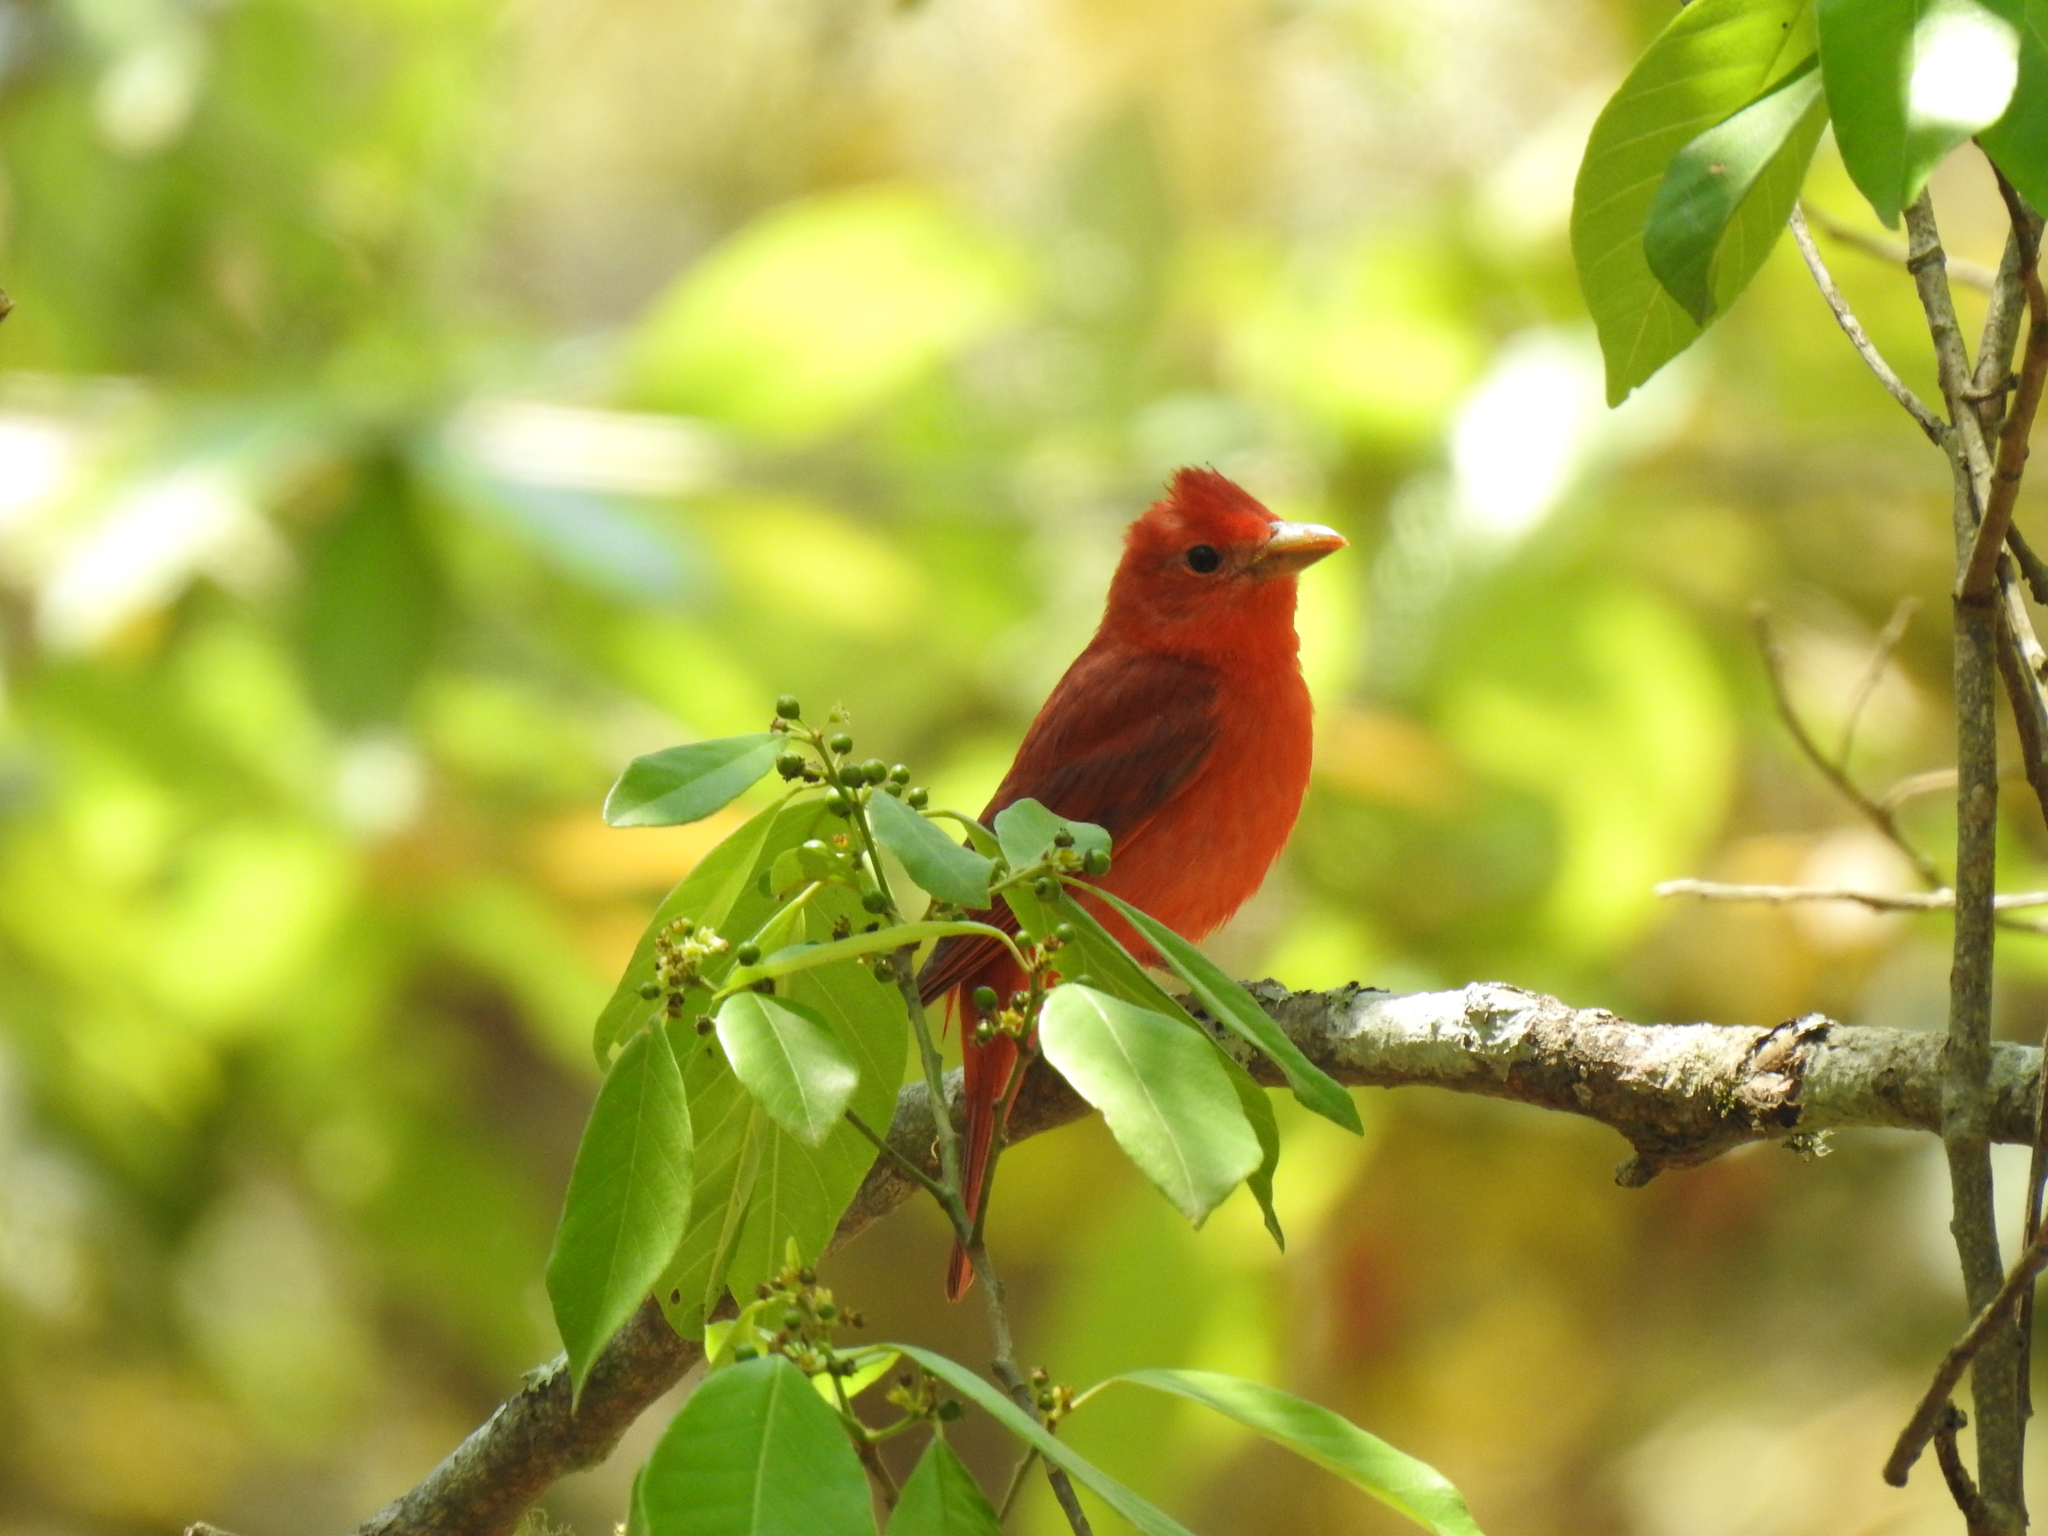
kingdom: Animalia
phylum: Chordata
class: Aves
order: Passeriformes
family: Cardinalidae
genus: Piranga
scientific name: Piranga rubra
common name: Summer tanager
